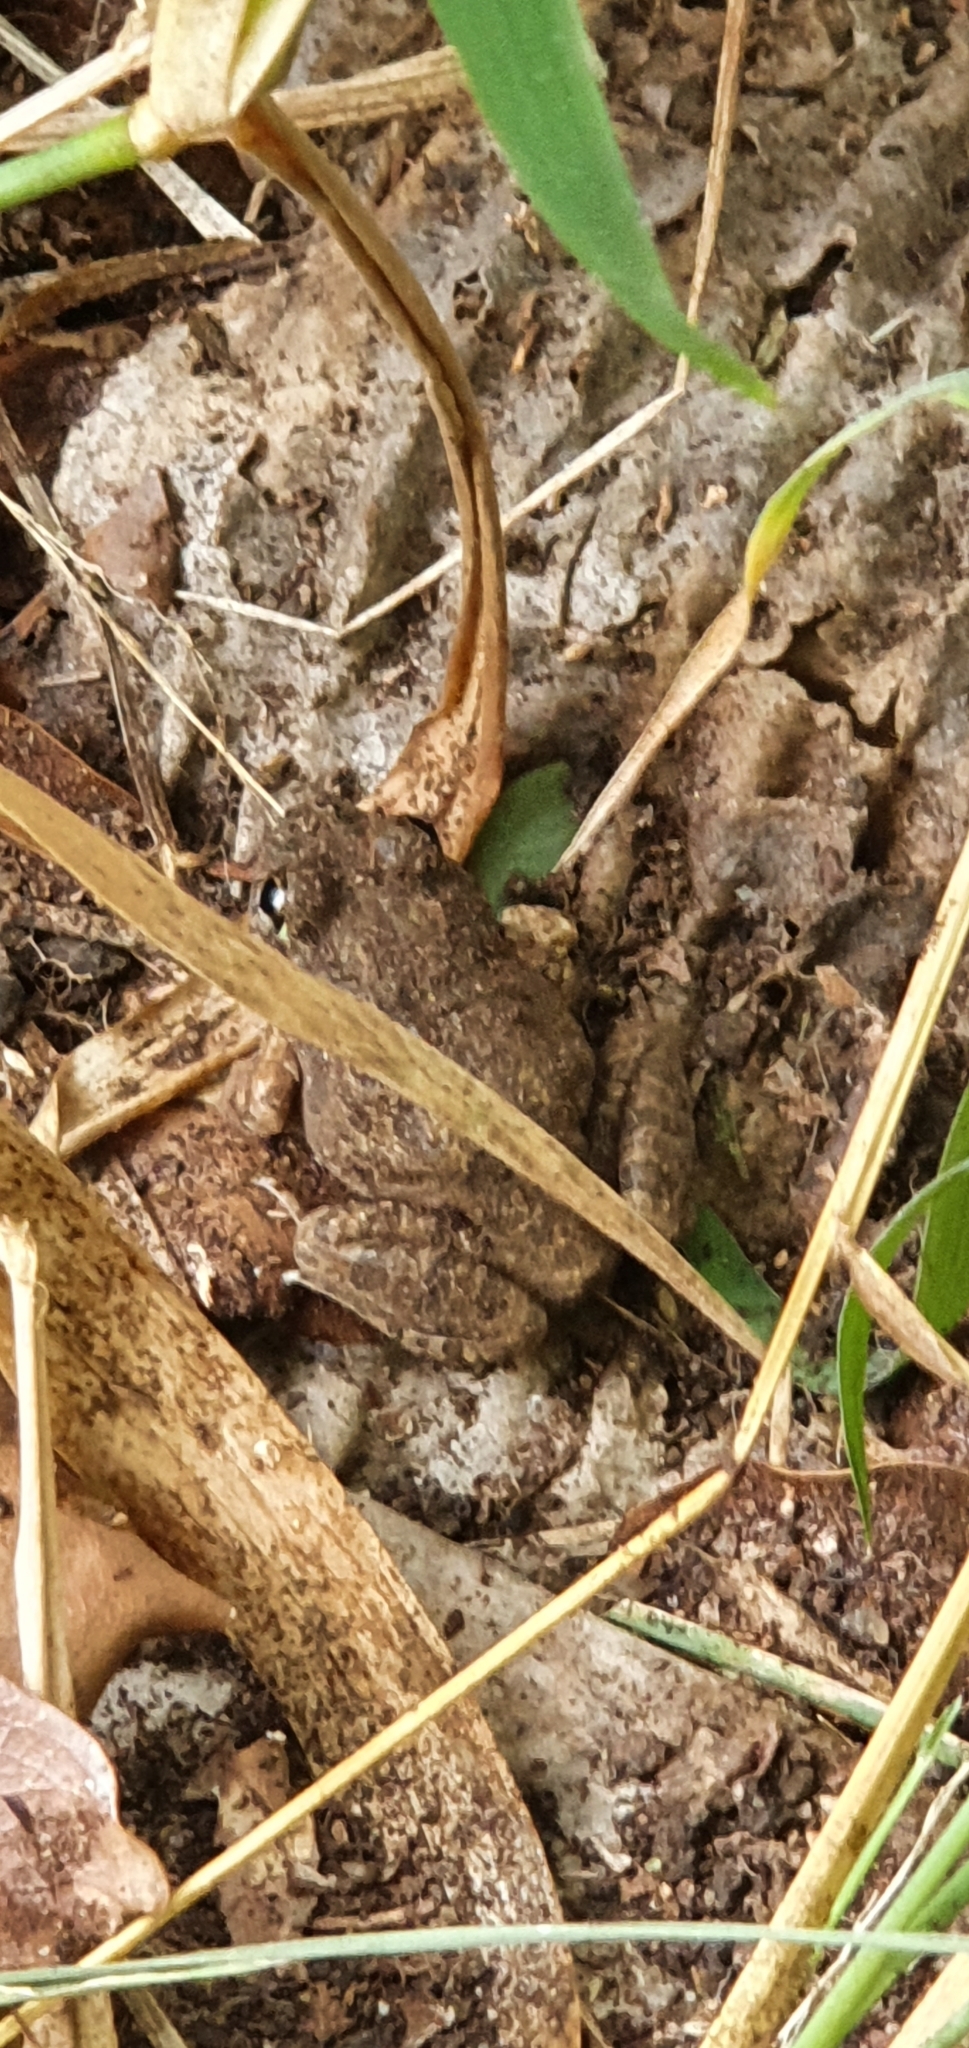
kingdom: Animalia
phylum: Chordata
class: Amphibia
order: Anura
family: Limnodynastidae
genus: Platyplectrum
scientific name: Platyplectrum ornatum
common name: Ornate burrowing frog
